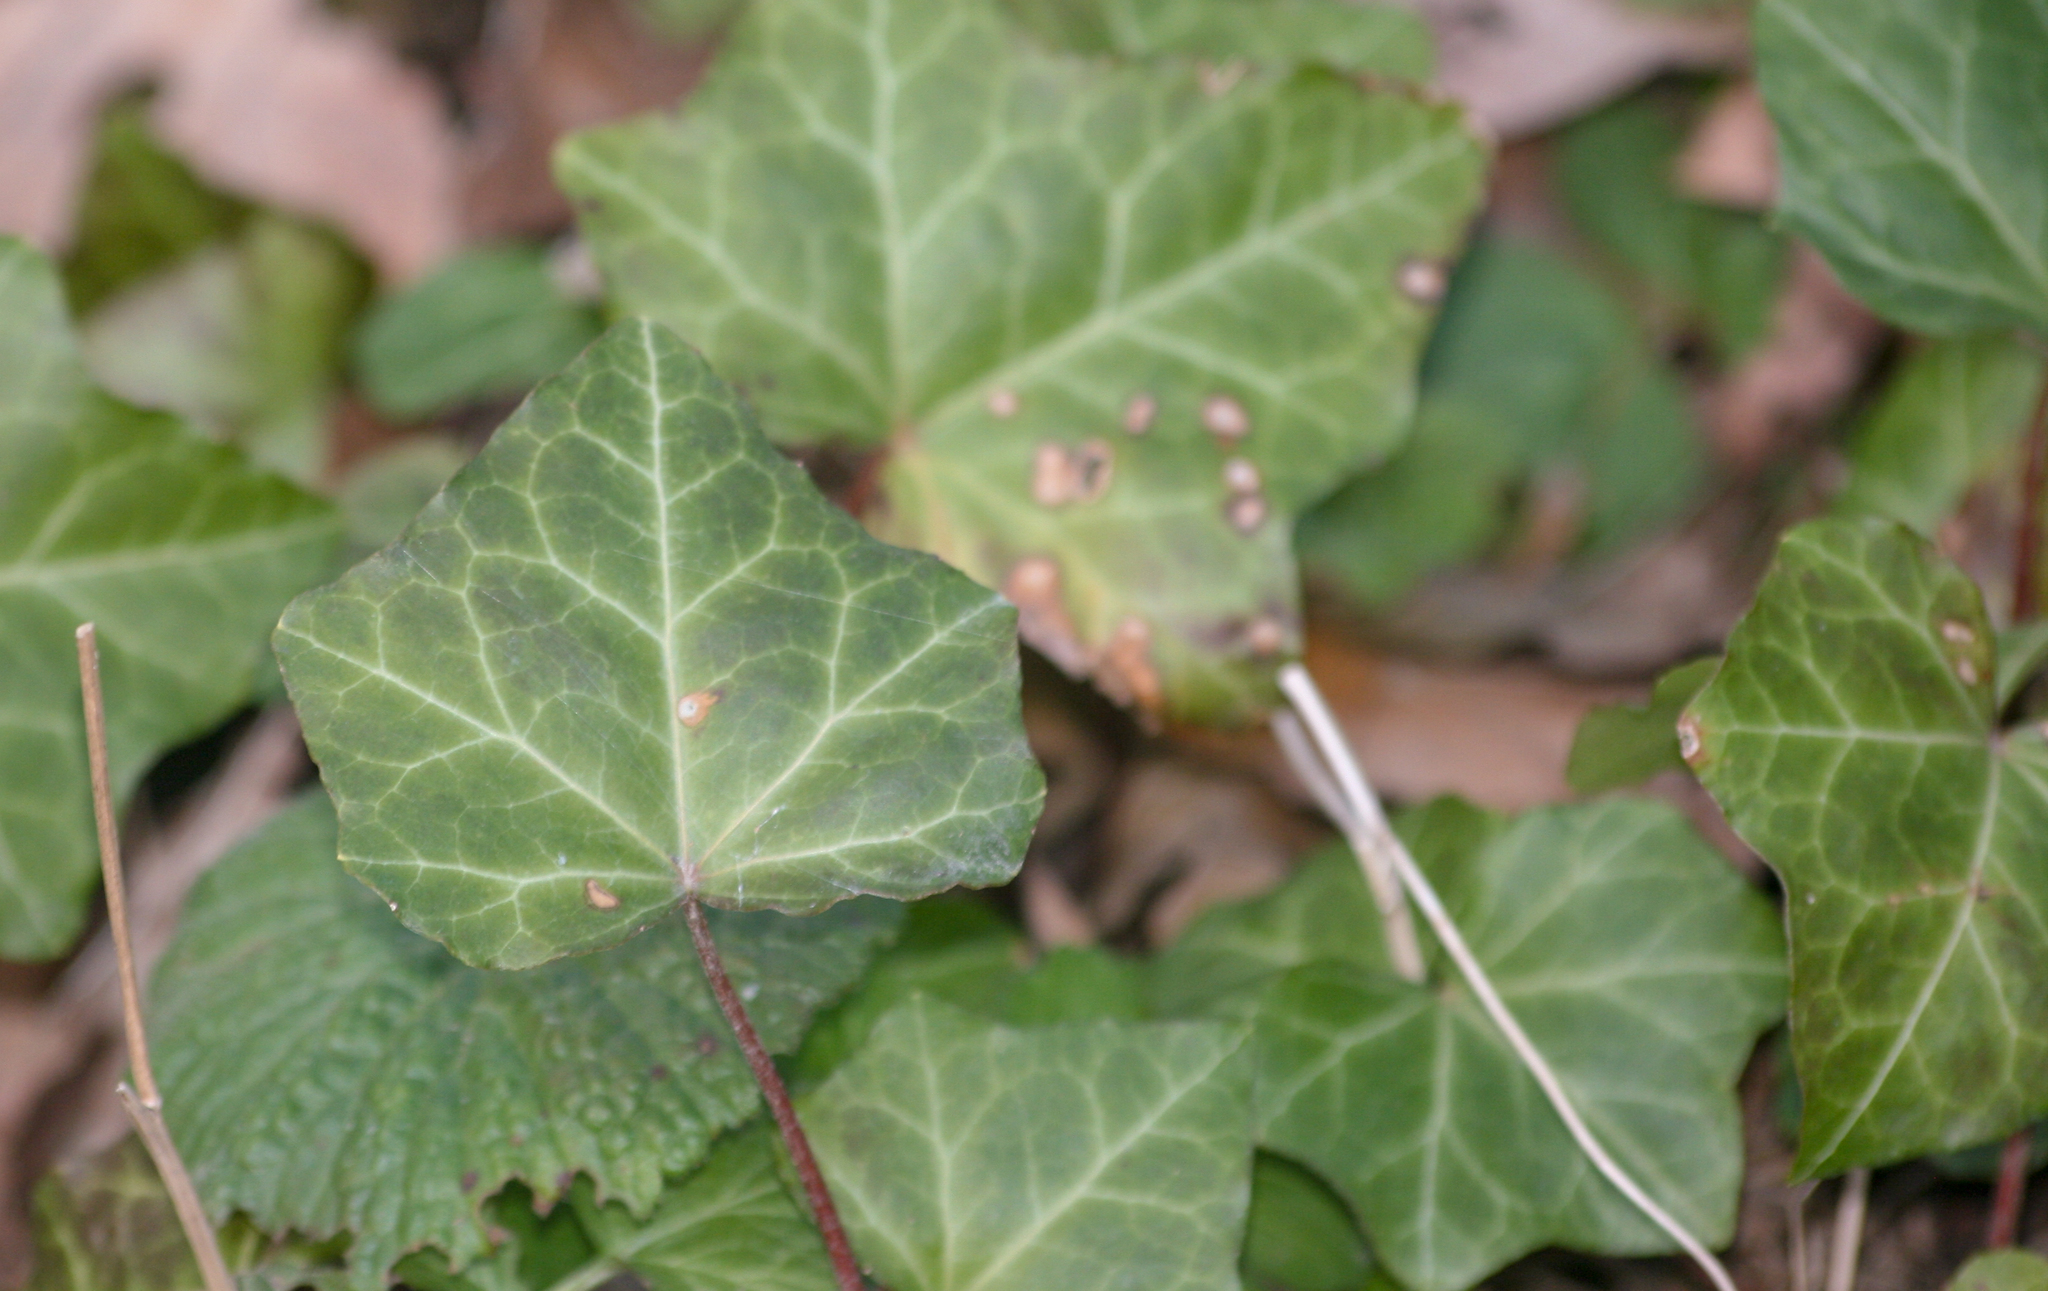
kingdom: Plantae
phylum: Tracheophyta
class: Magnoliopsida
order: Apiales
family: Araliaceae
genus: Hedera
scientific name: Hedera helix
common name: Ivy
